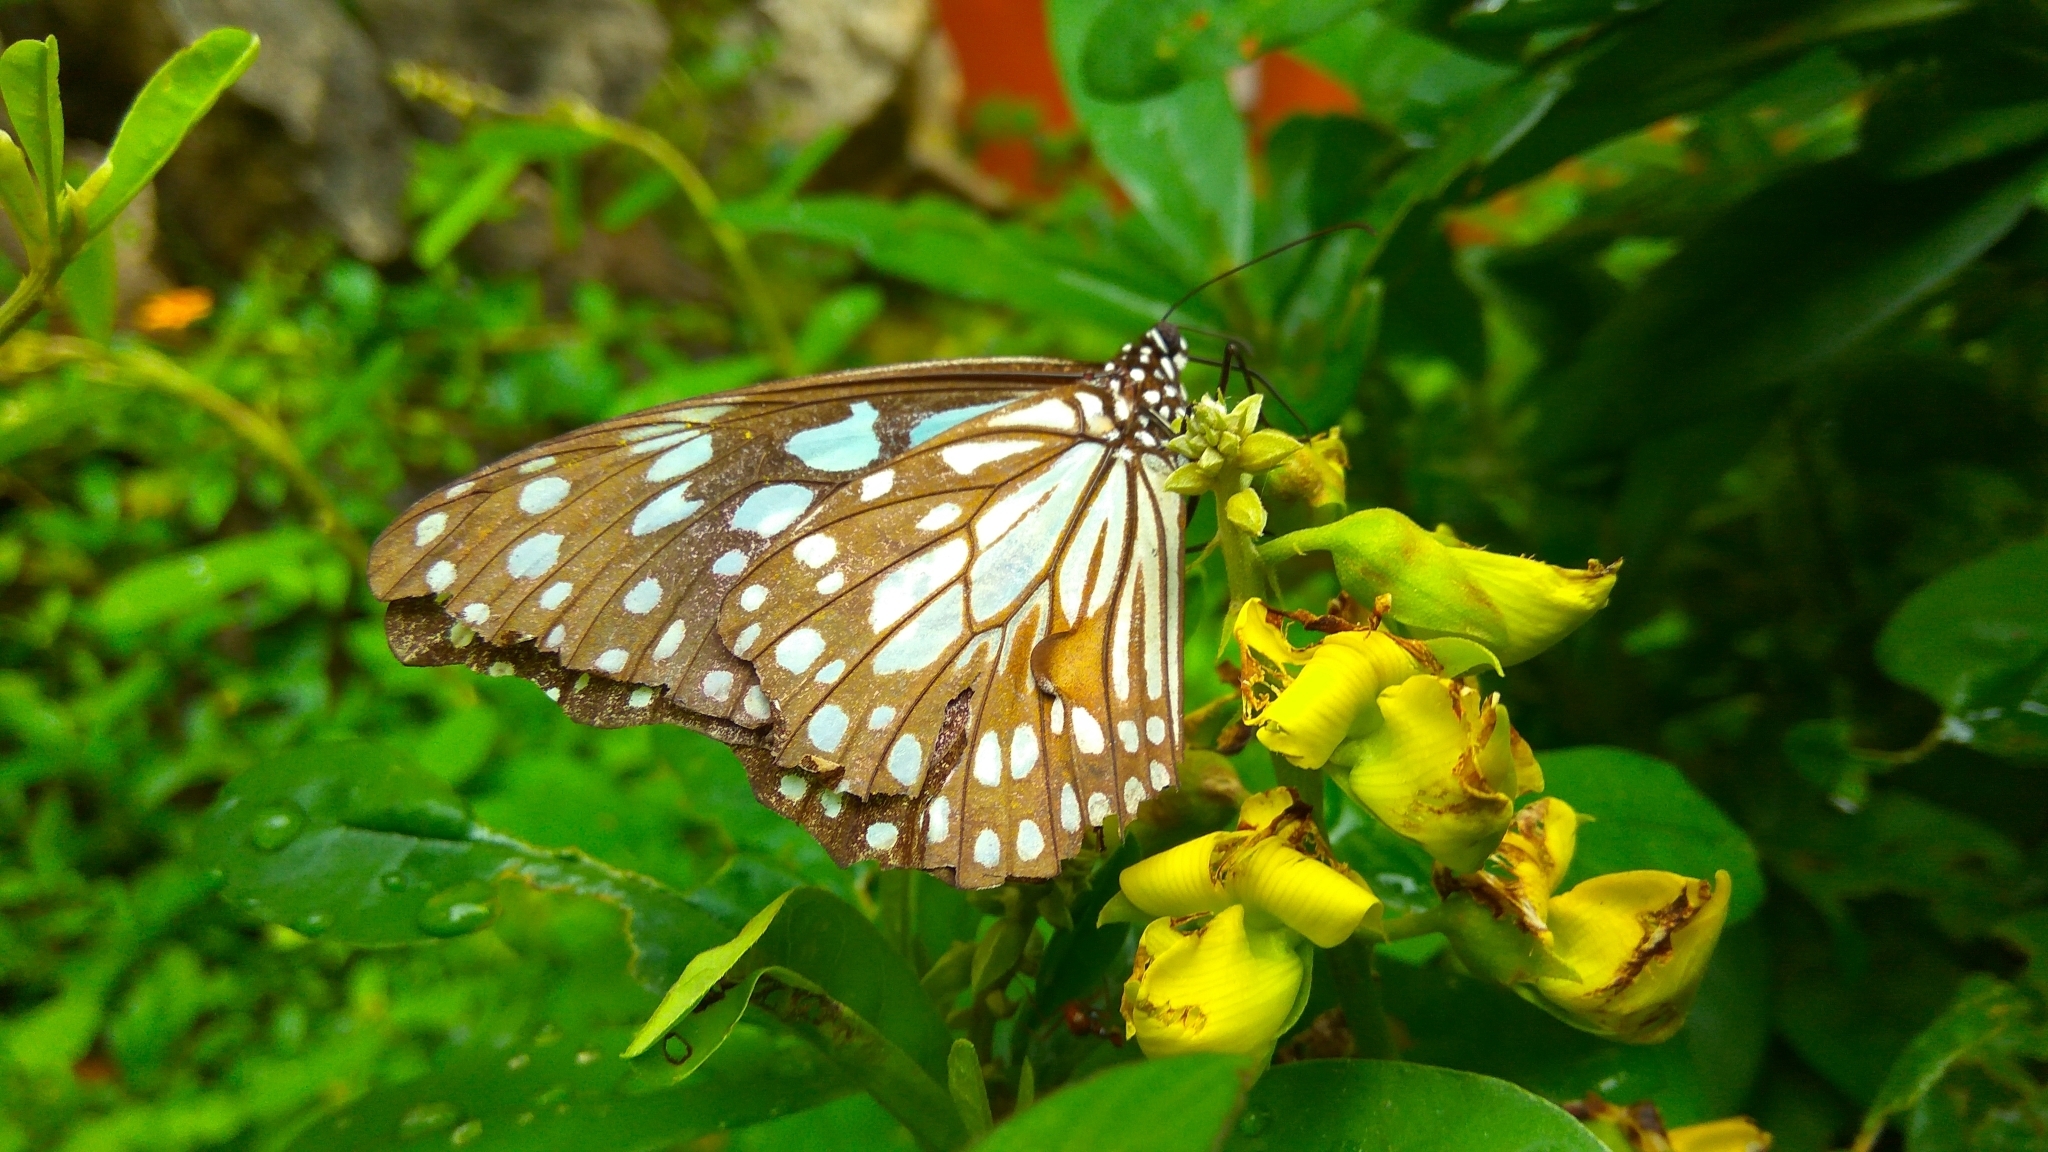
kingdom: Animalia
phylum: Arthropoda
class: Insecta
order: Lepidoptera
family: Nymphalidae
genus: Tirumala
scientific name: Tirumala limniace
